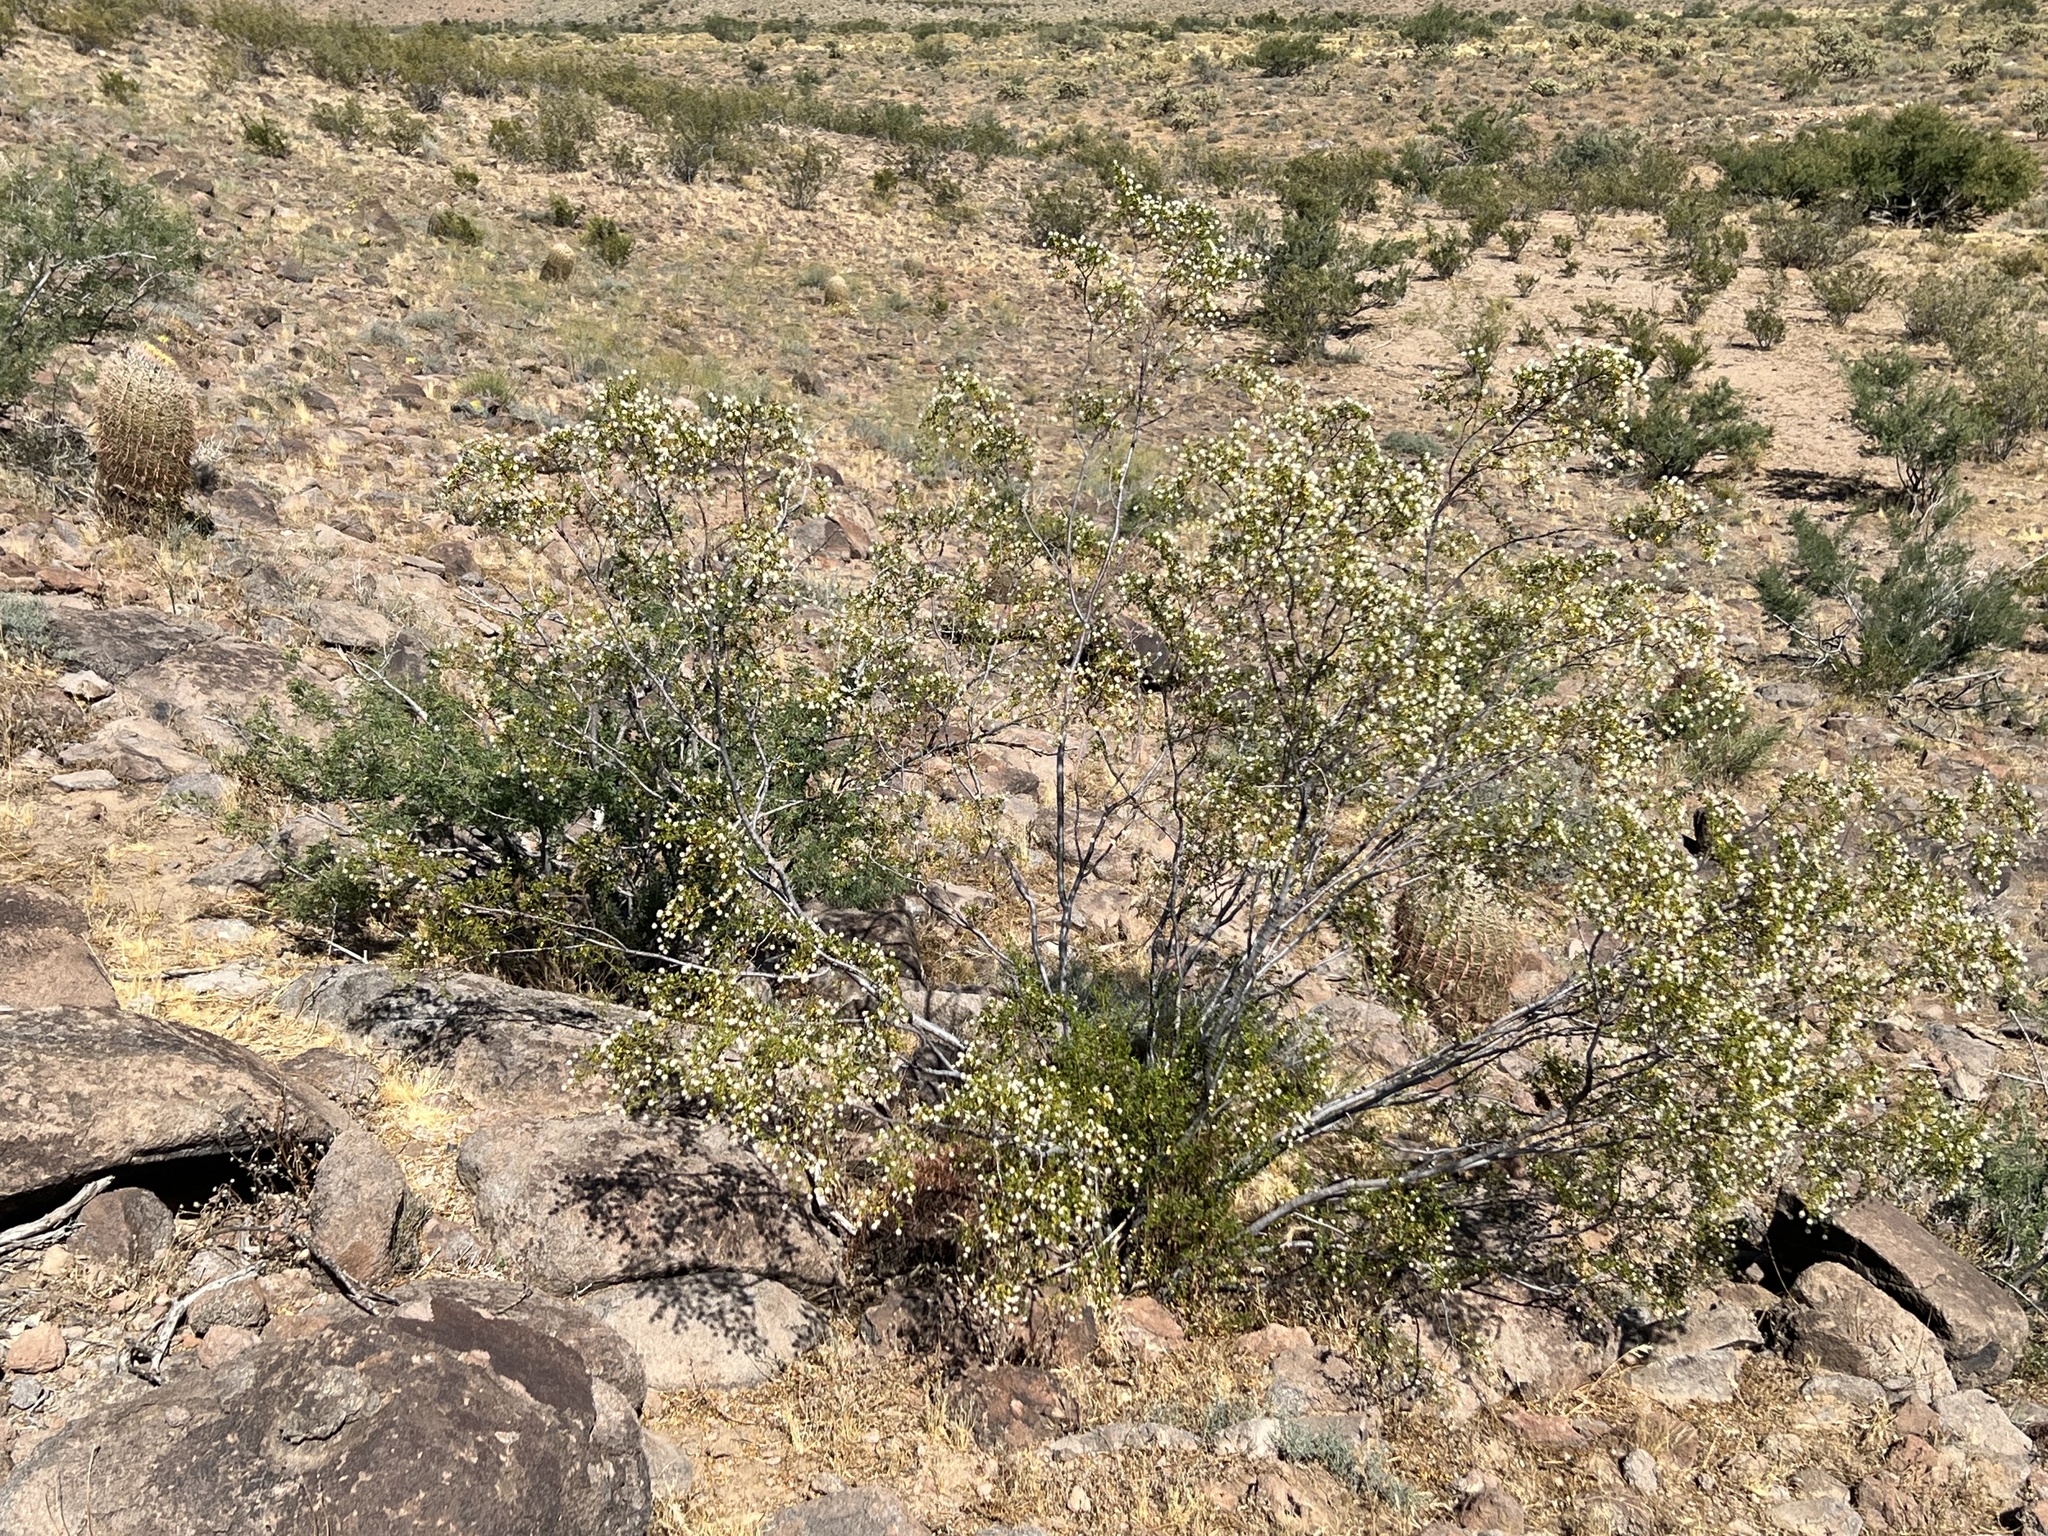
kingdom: Plantae
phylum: Tracheophyta
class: Magnoliopsida
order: Zygophyllales
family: Zygophyllaceae
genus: Larrea
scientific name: Larrea tridentata
